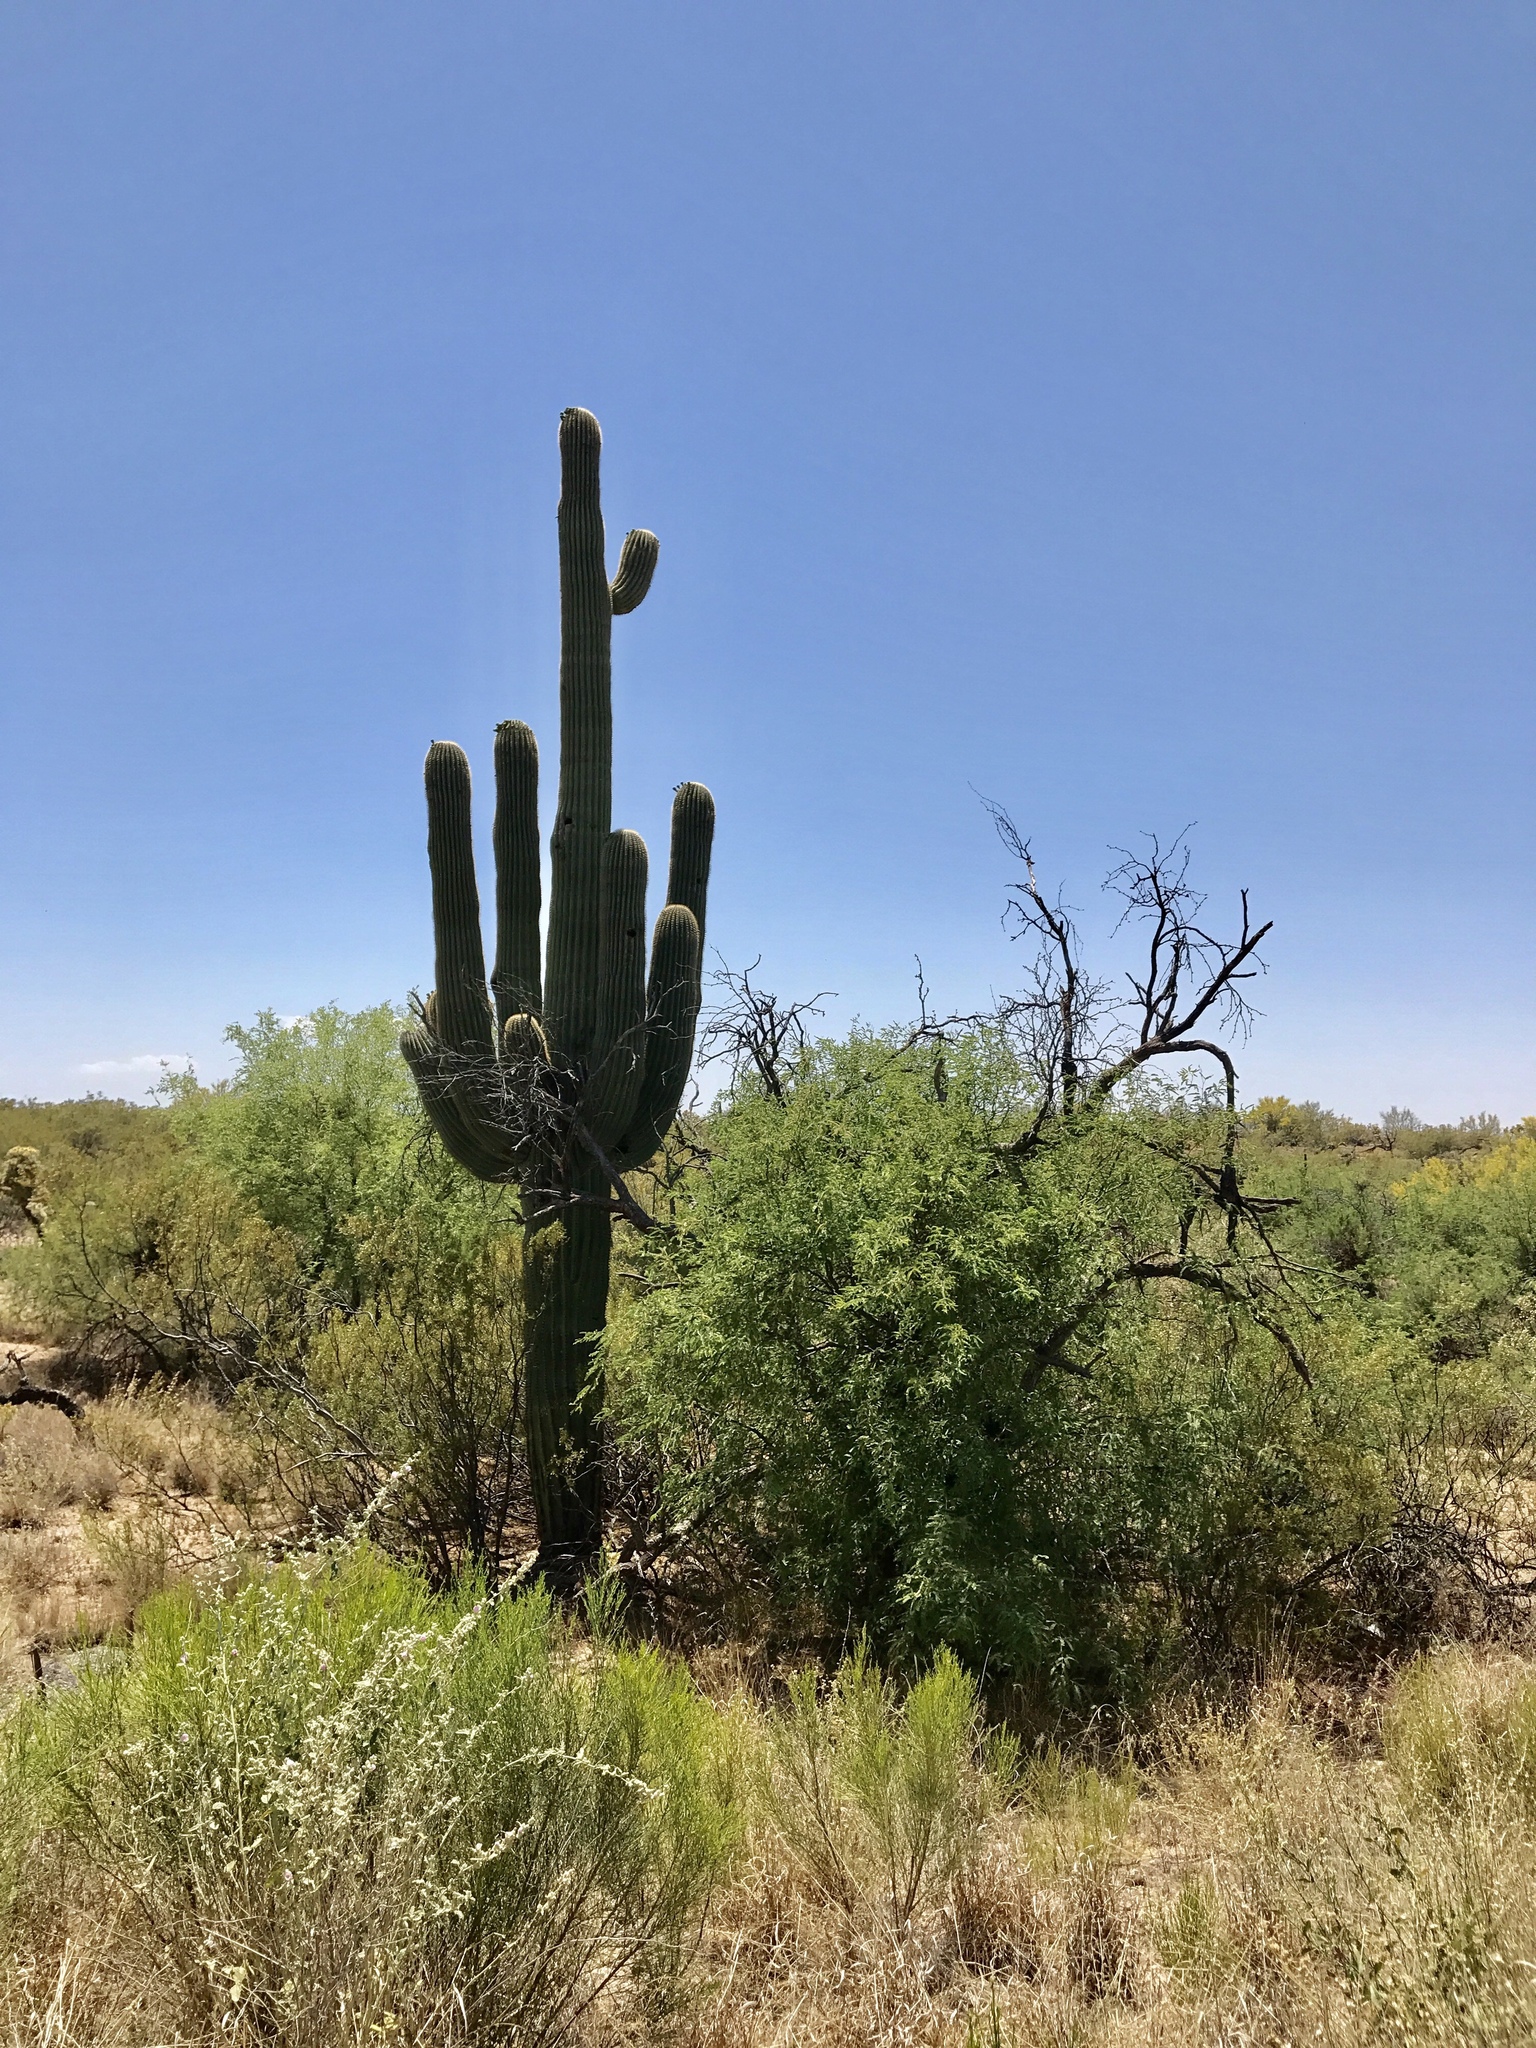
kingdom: Plantae
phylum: Tracheophyta
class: Magnoliopsida
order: Caryophyllales
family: Cactaceae
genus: Carnegiea
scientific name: Carnegiea gigantea
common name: Saguaro
